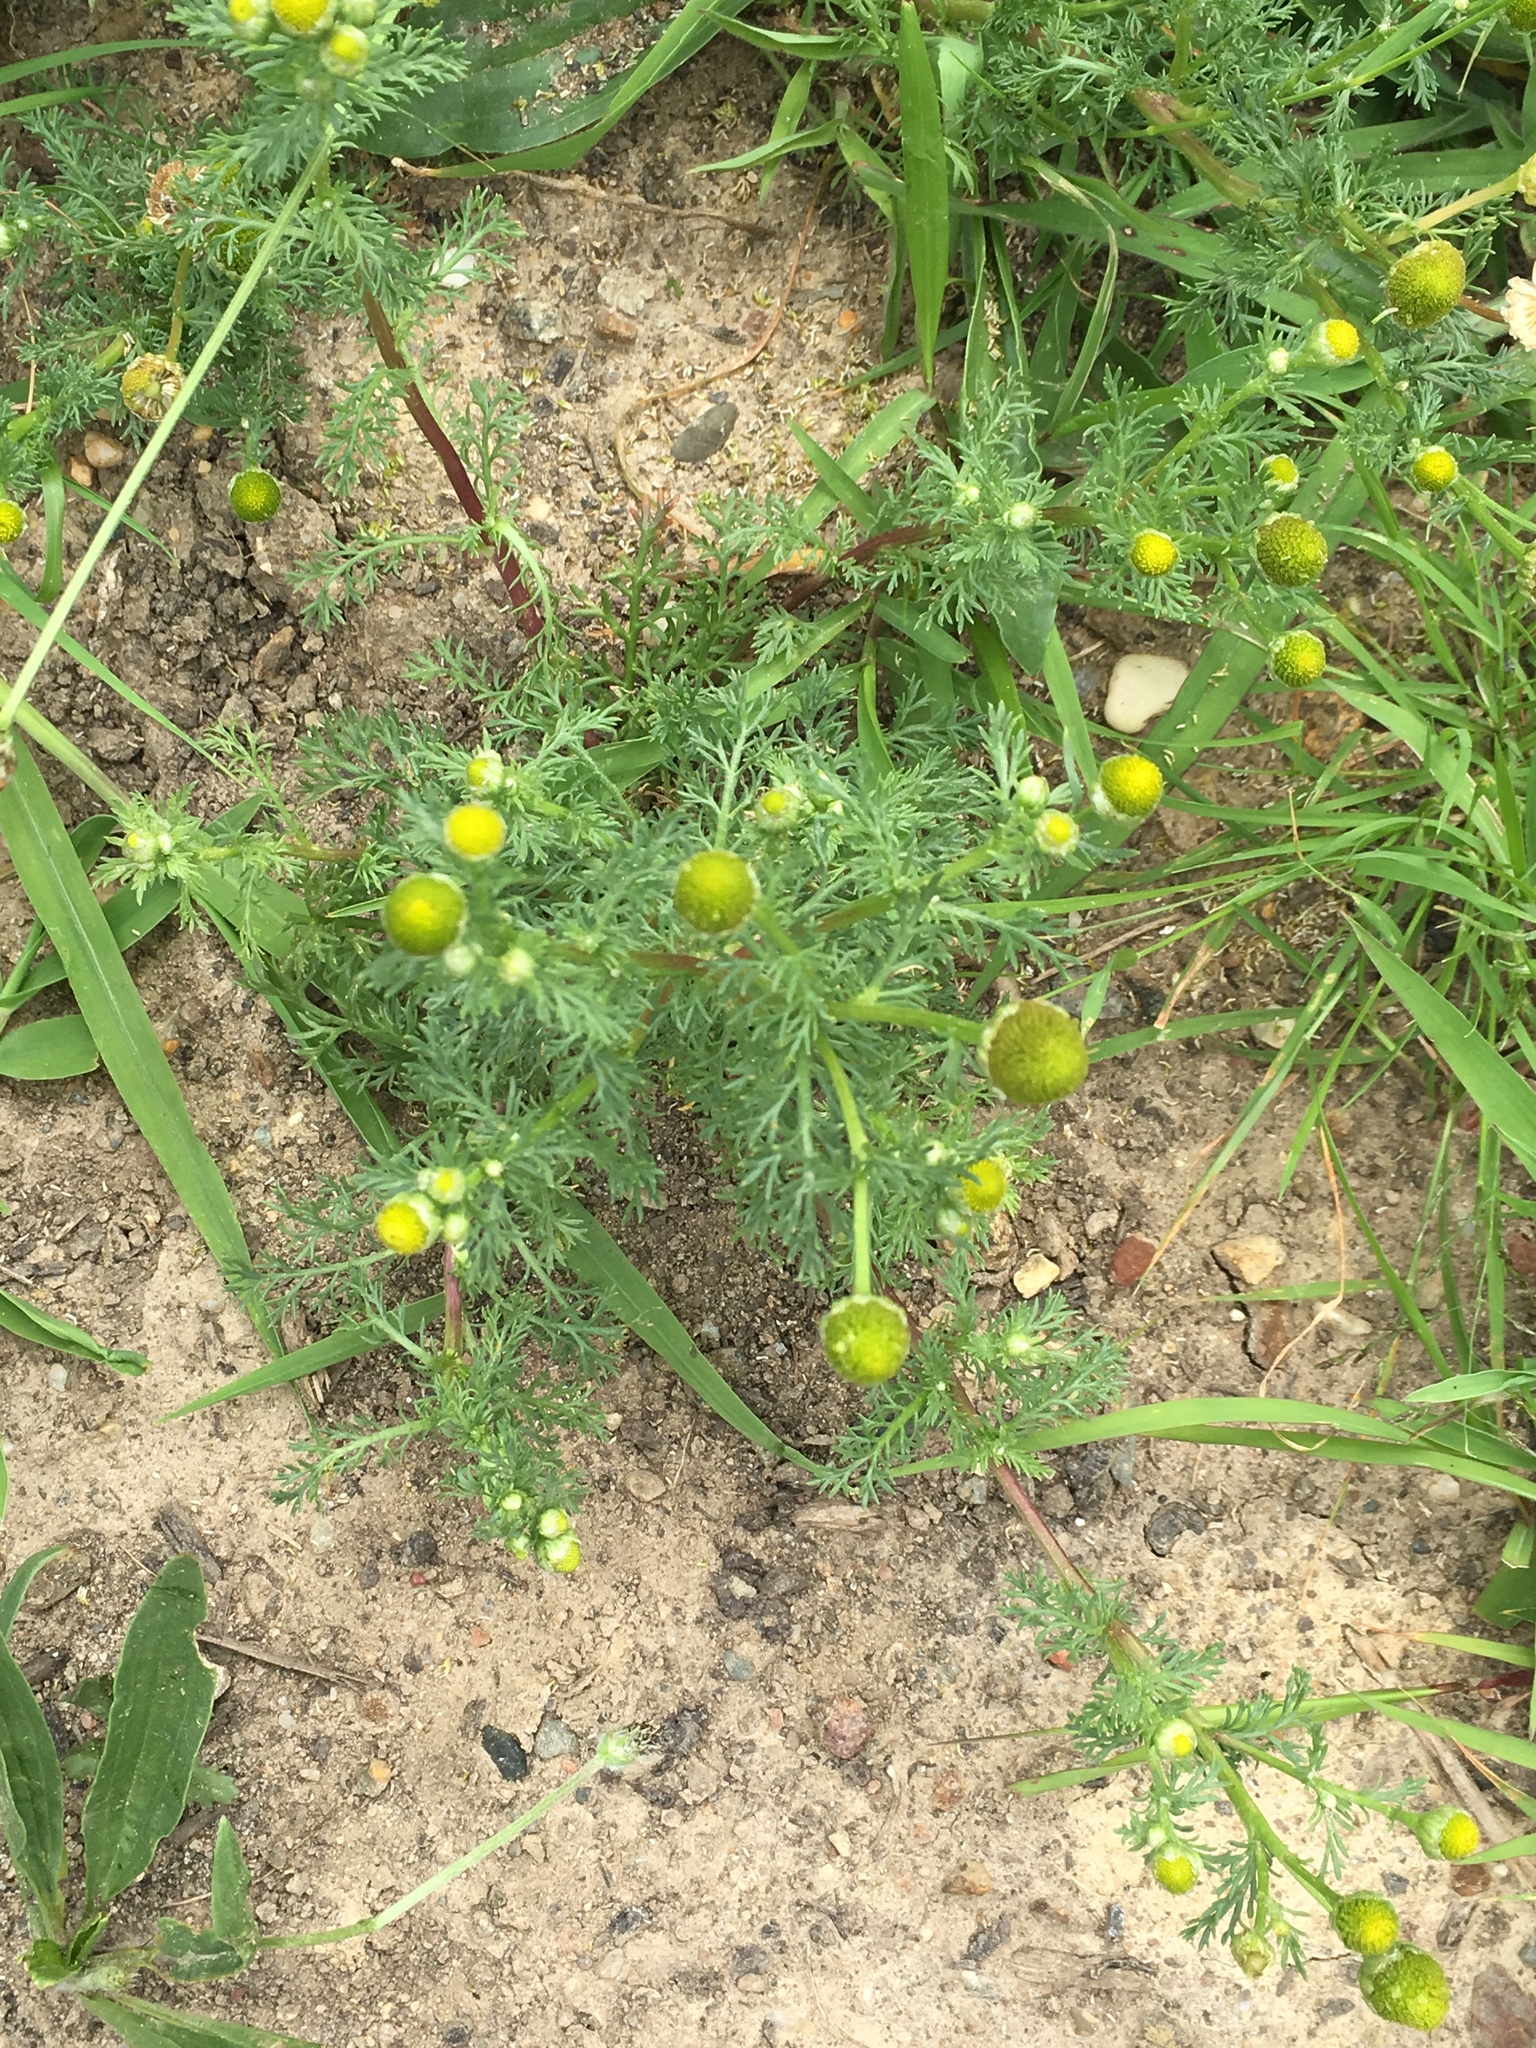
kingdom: Plantae
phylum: Tracheophyta
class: Magnoliopsida
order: Asterales
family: Asteraceae
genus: Matricaria
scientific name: Matricaria discoidea
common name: Disc mayweed
